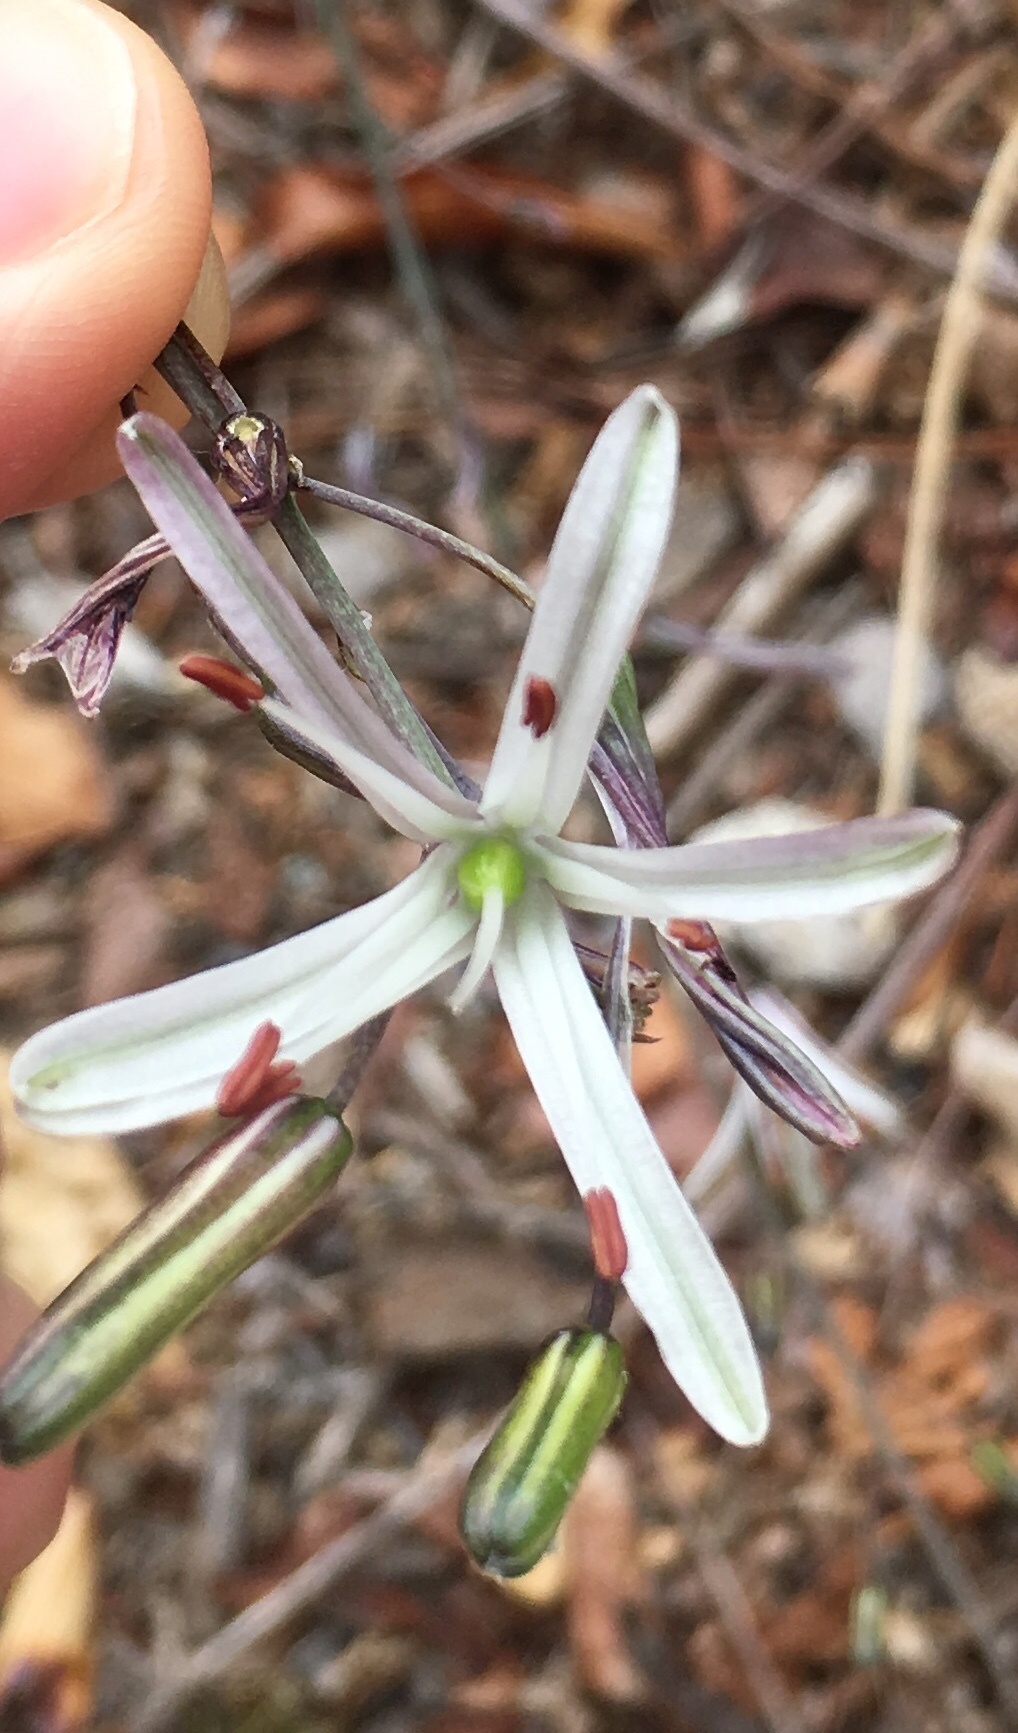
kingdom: Plantae
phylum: Tracheophyta
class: Liliopsida
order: Asparagales
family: Asparagaceae
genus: Chlorogalum
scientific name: Chlorogalum pomeridianum
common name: Amole
